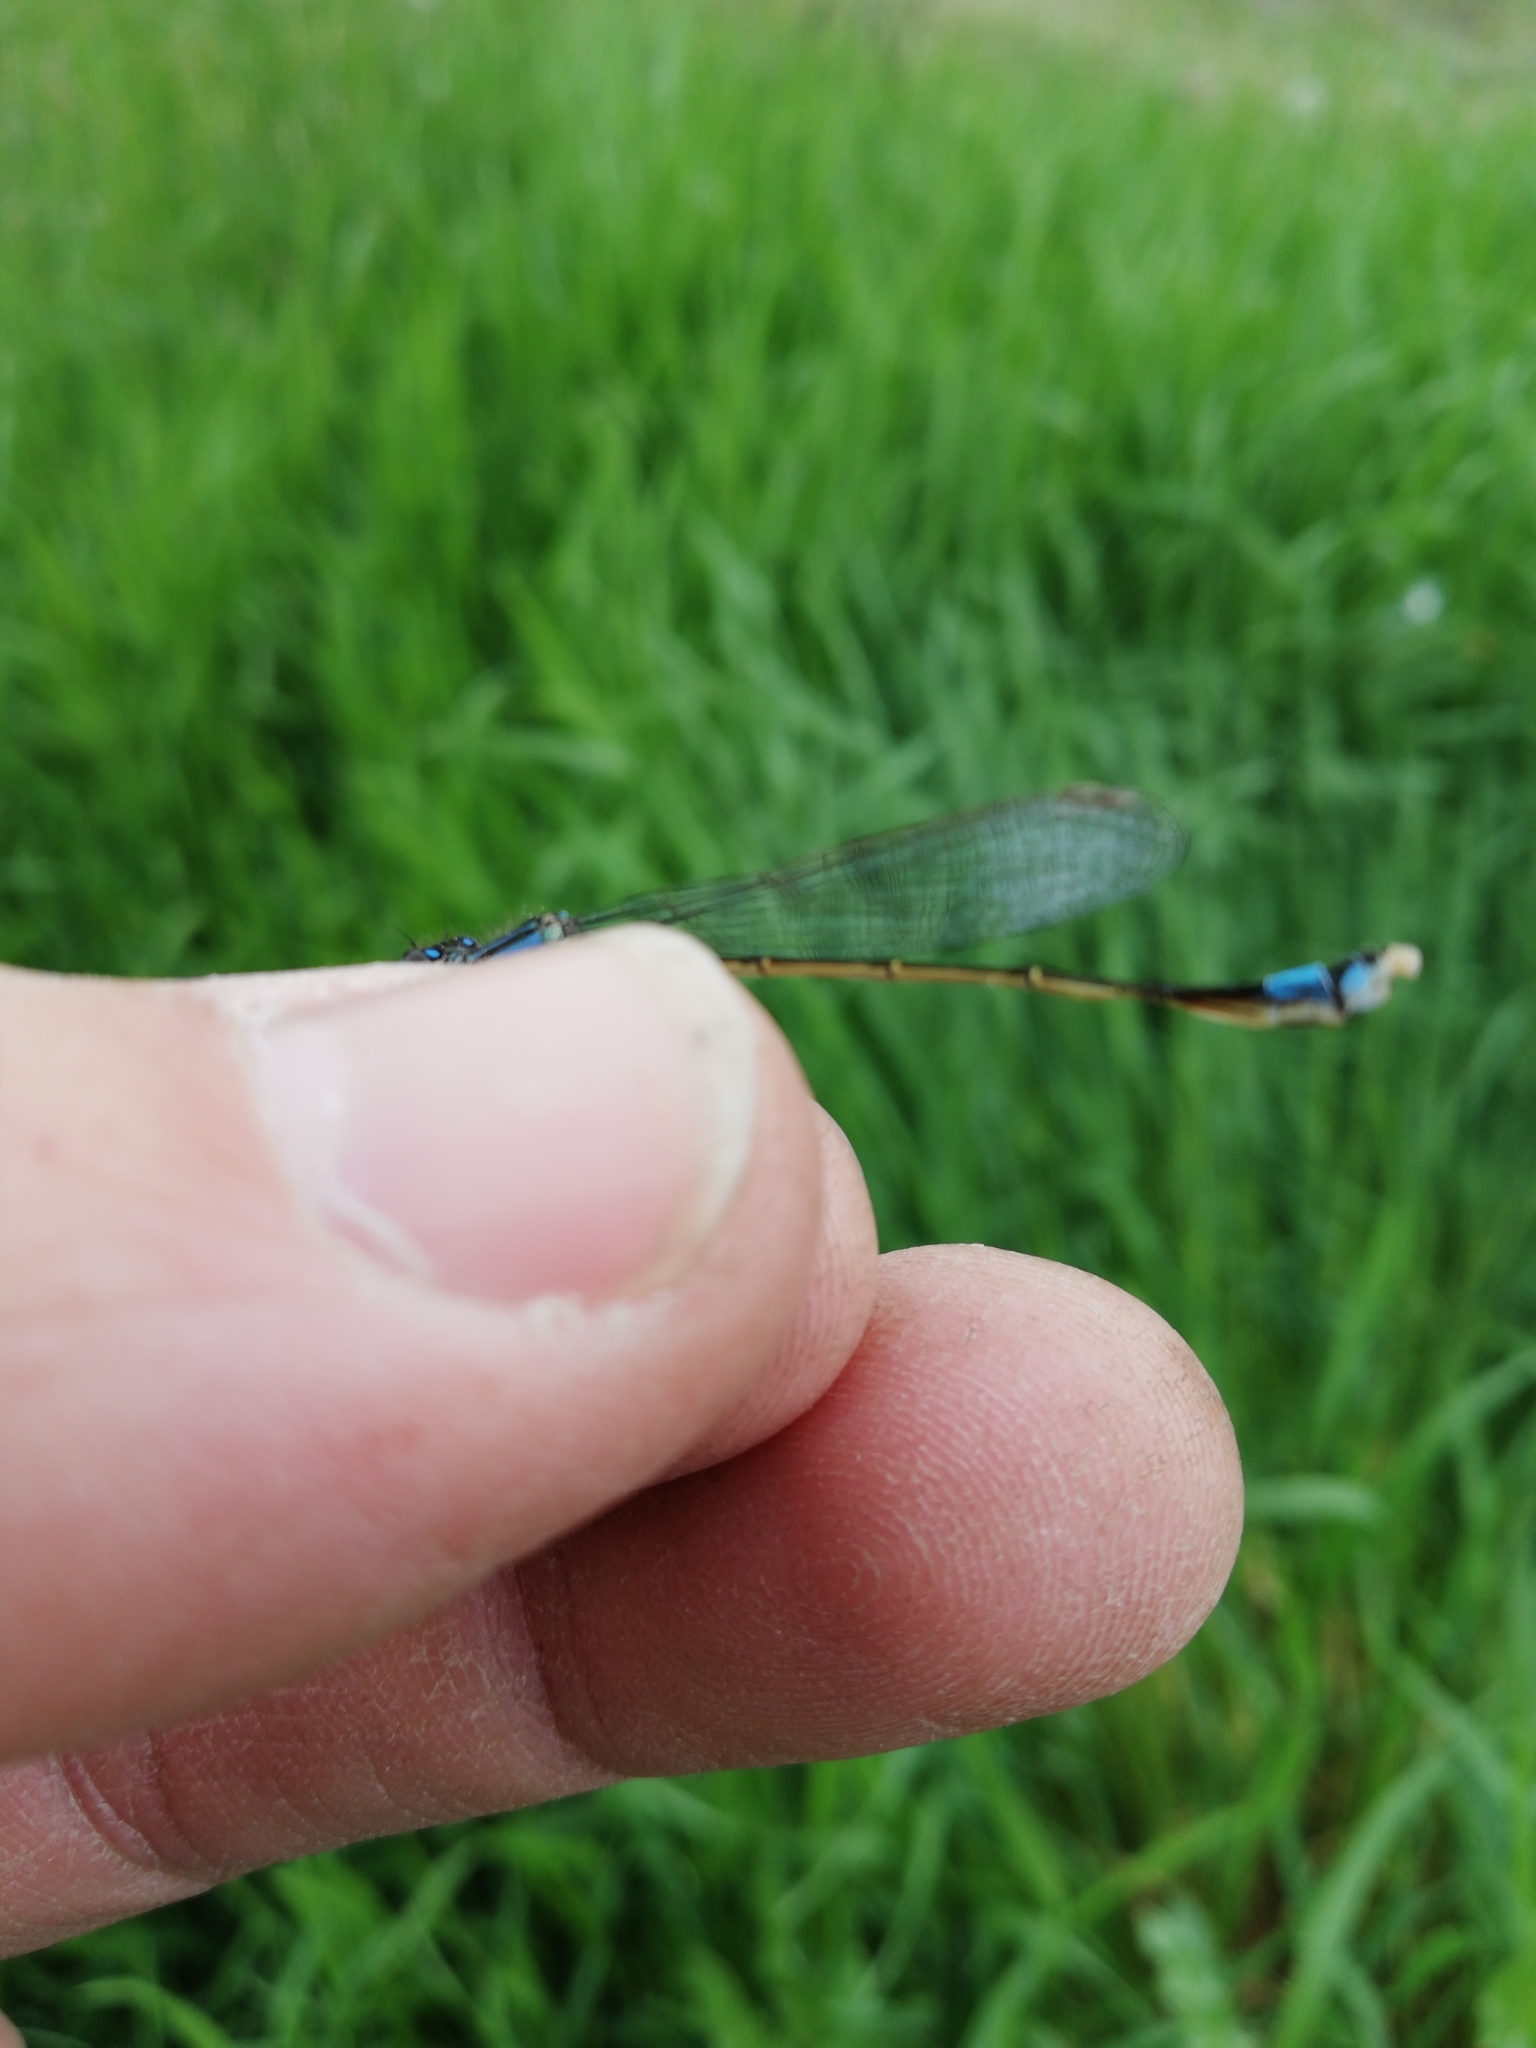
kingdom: Animalia
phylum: Arthropoda
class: Insecta
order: Odonata
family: Coenagrionidae
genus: Ischnura
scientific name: Ischnura elegans
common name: Blue-tailed damselfly
